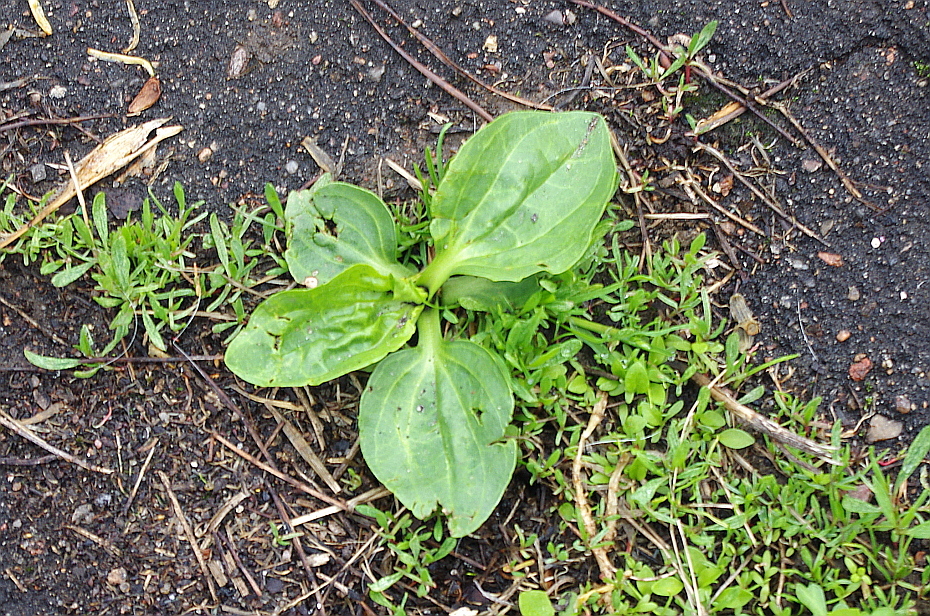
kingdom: Plantae
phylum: Tracheophyta
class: Magnoliopsida
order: Lamiales
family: Plantaginaceae
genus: Plantago
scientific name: Plantago major
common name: Common plantain
